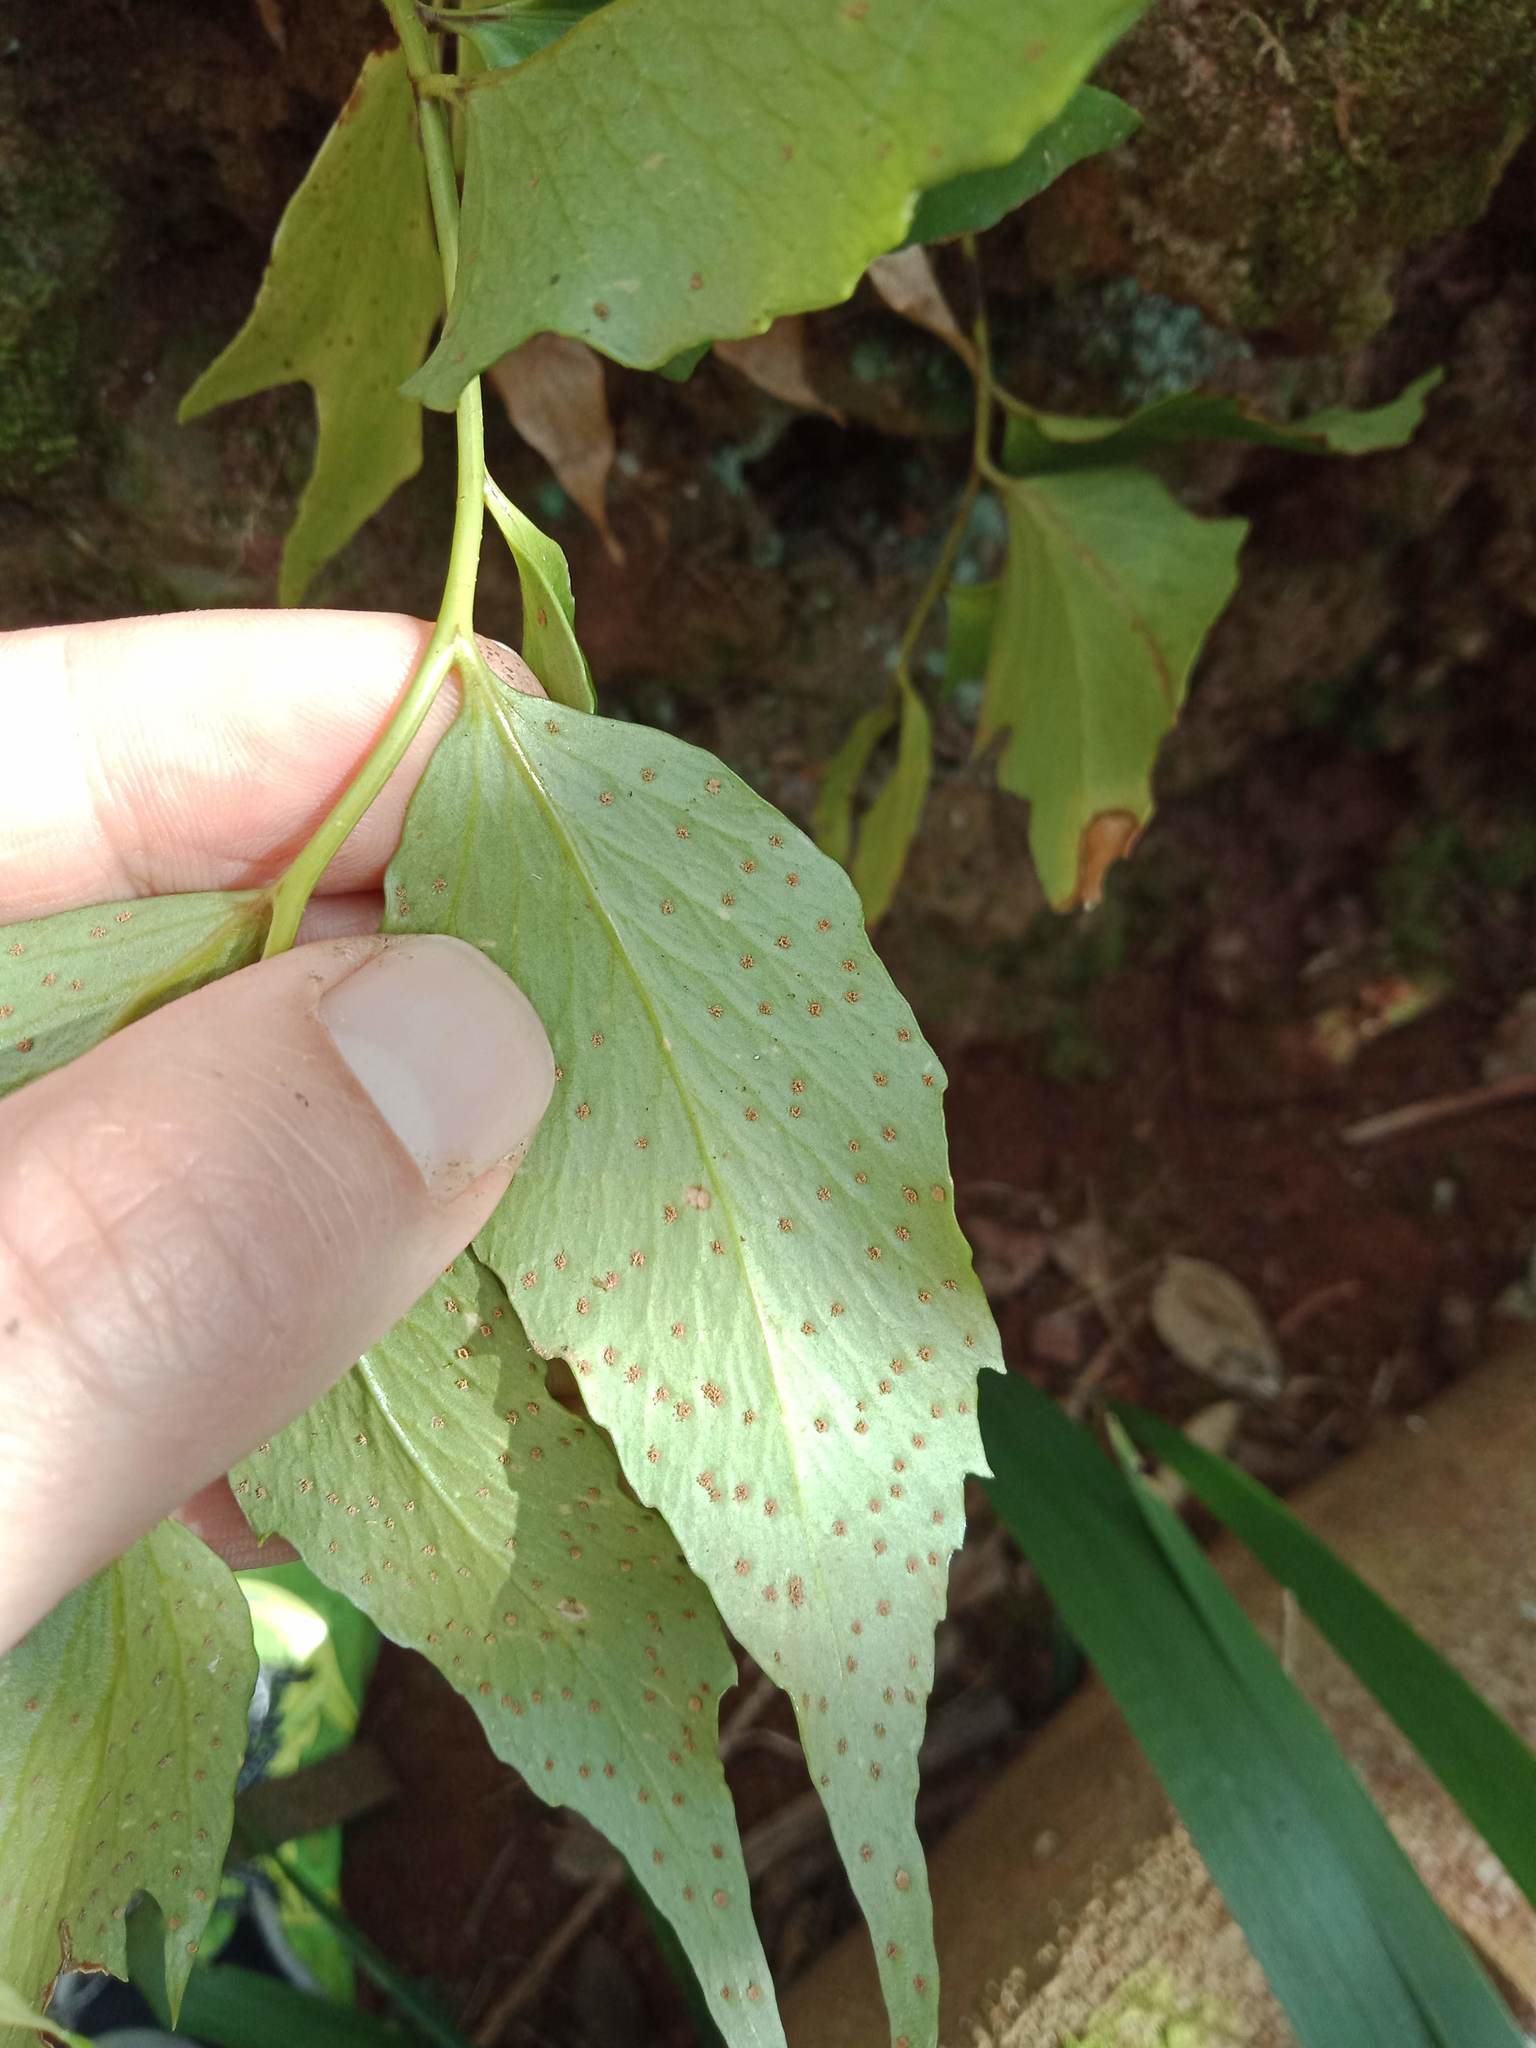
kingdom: Plantae
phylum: Tracheophyta
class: Polypodiopsida
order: Polypodiales
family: Dryopteridaceae
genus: Cyrtomium
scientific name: Cyrtomium falcatum
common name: House holly-fern
